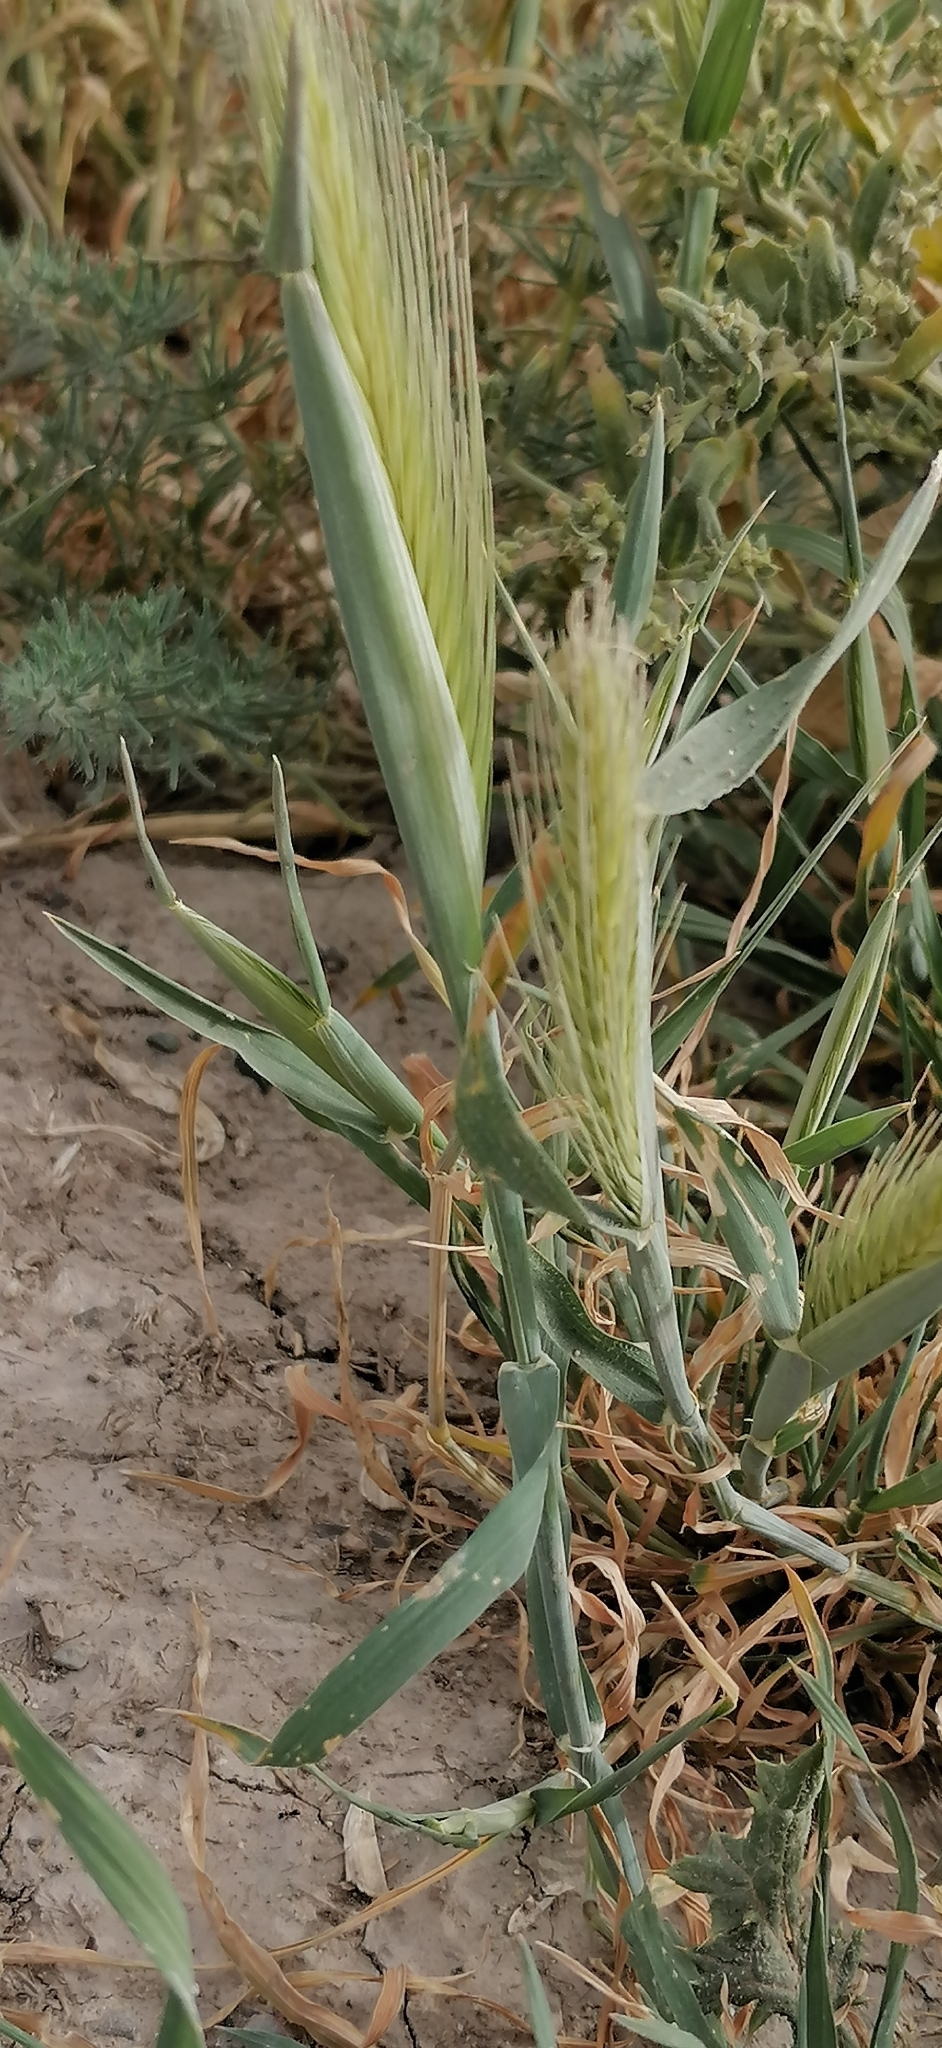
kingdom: Plantae
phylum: Tracheophyta
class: Liliopsida
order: Poales
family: Poaceae
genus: Hordeum
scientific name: Hordeum murinum
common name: Wall barley
